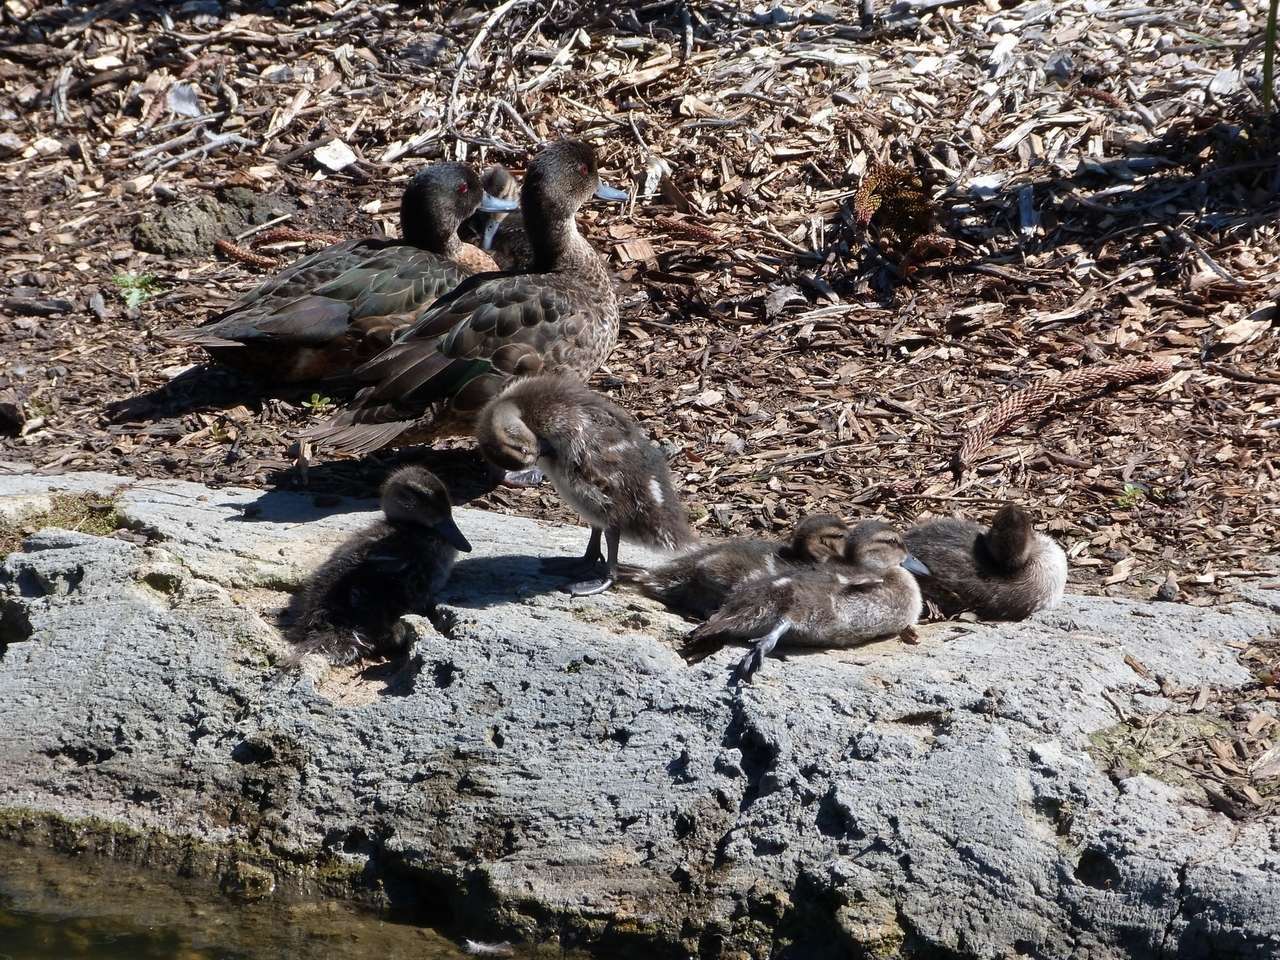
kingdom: Animalia
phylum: Chordata
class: Aves
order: Anseriformes
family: Anatidae
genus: Anas
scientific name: Anas castanea
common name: Chestnut teal
